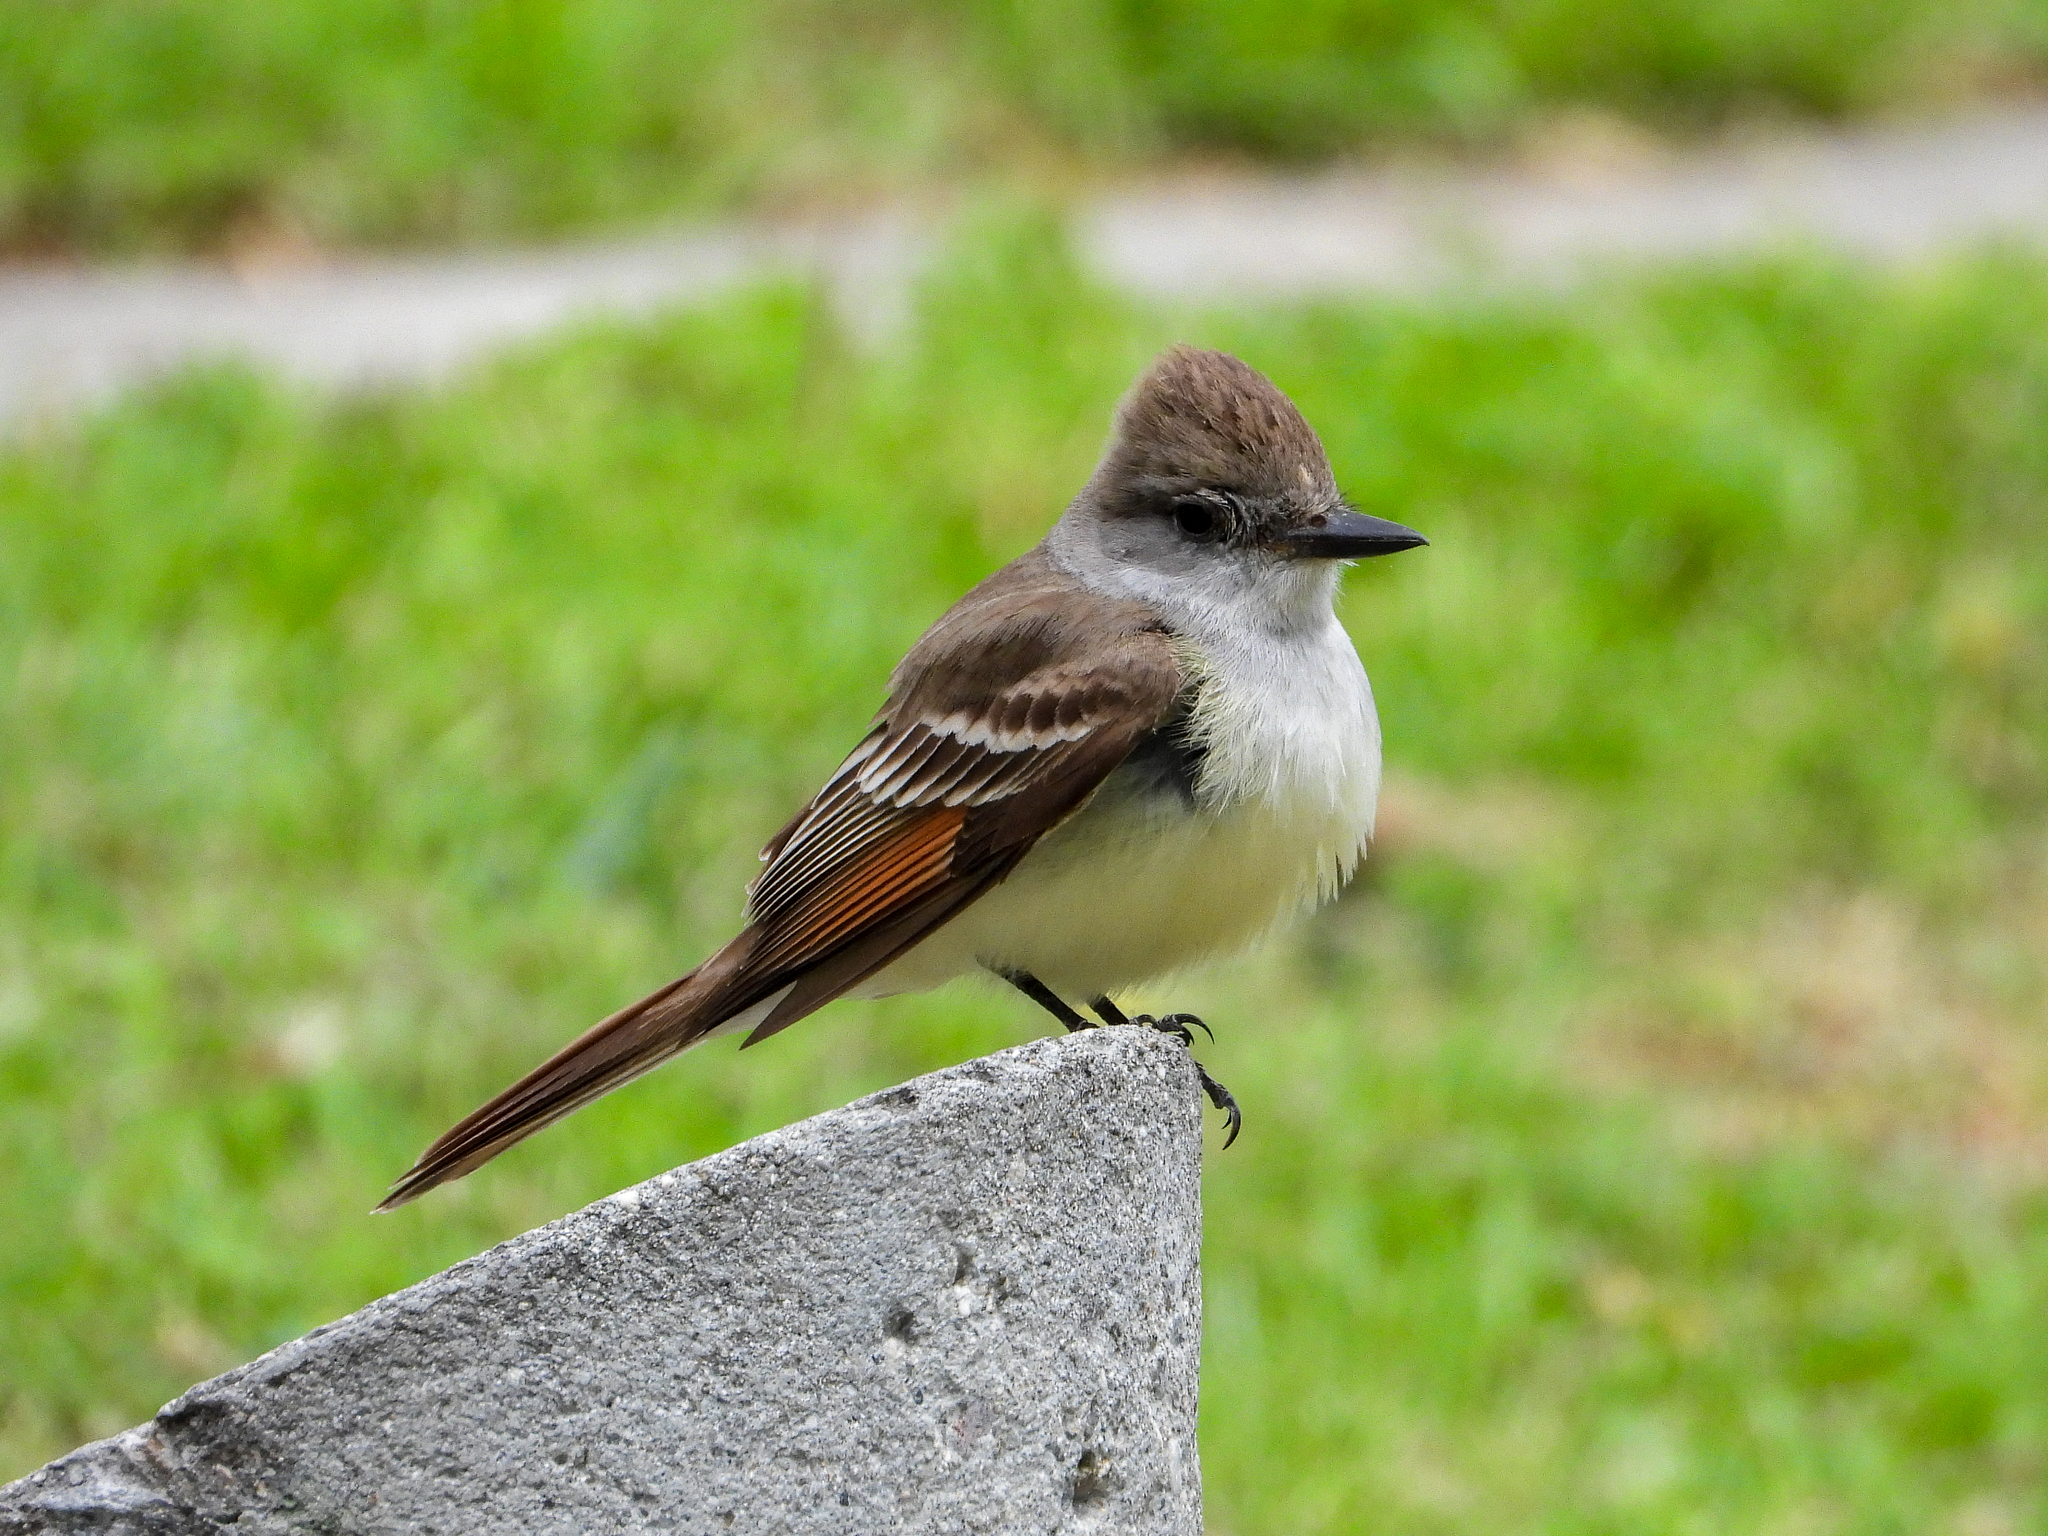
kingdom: Animalia
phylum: Chordata
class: Aves
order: Passeriformes
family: Tyrannidae
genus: Myiarchus
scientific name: Myiarchus cinerascens
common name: Ash-throated flycatcher
